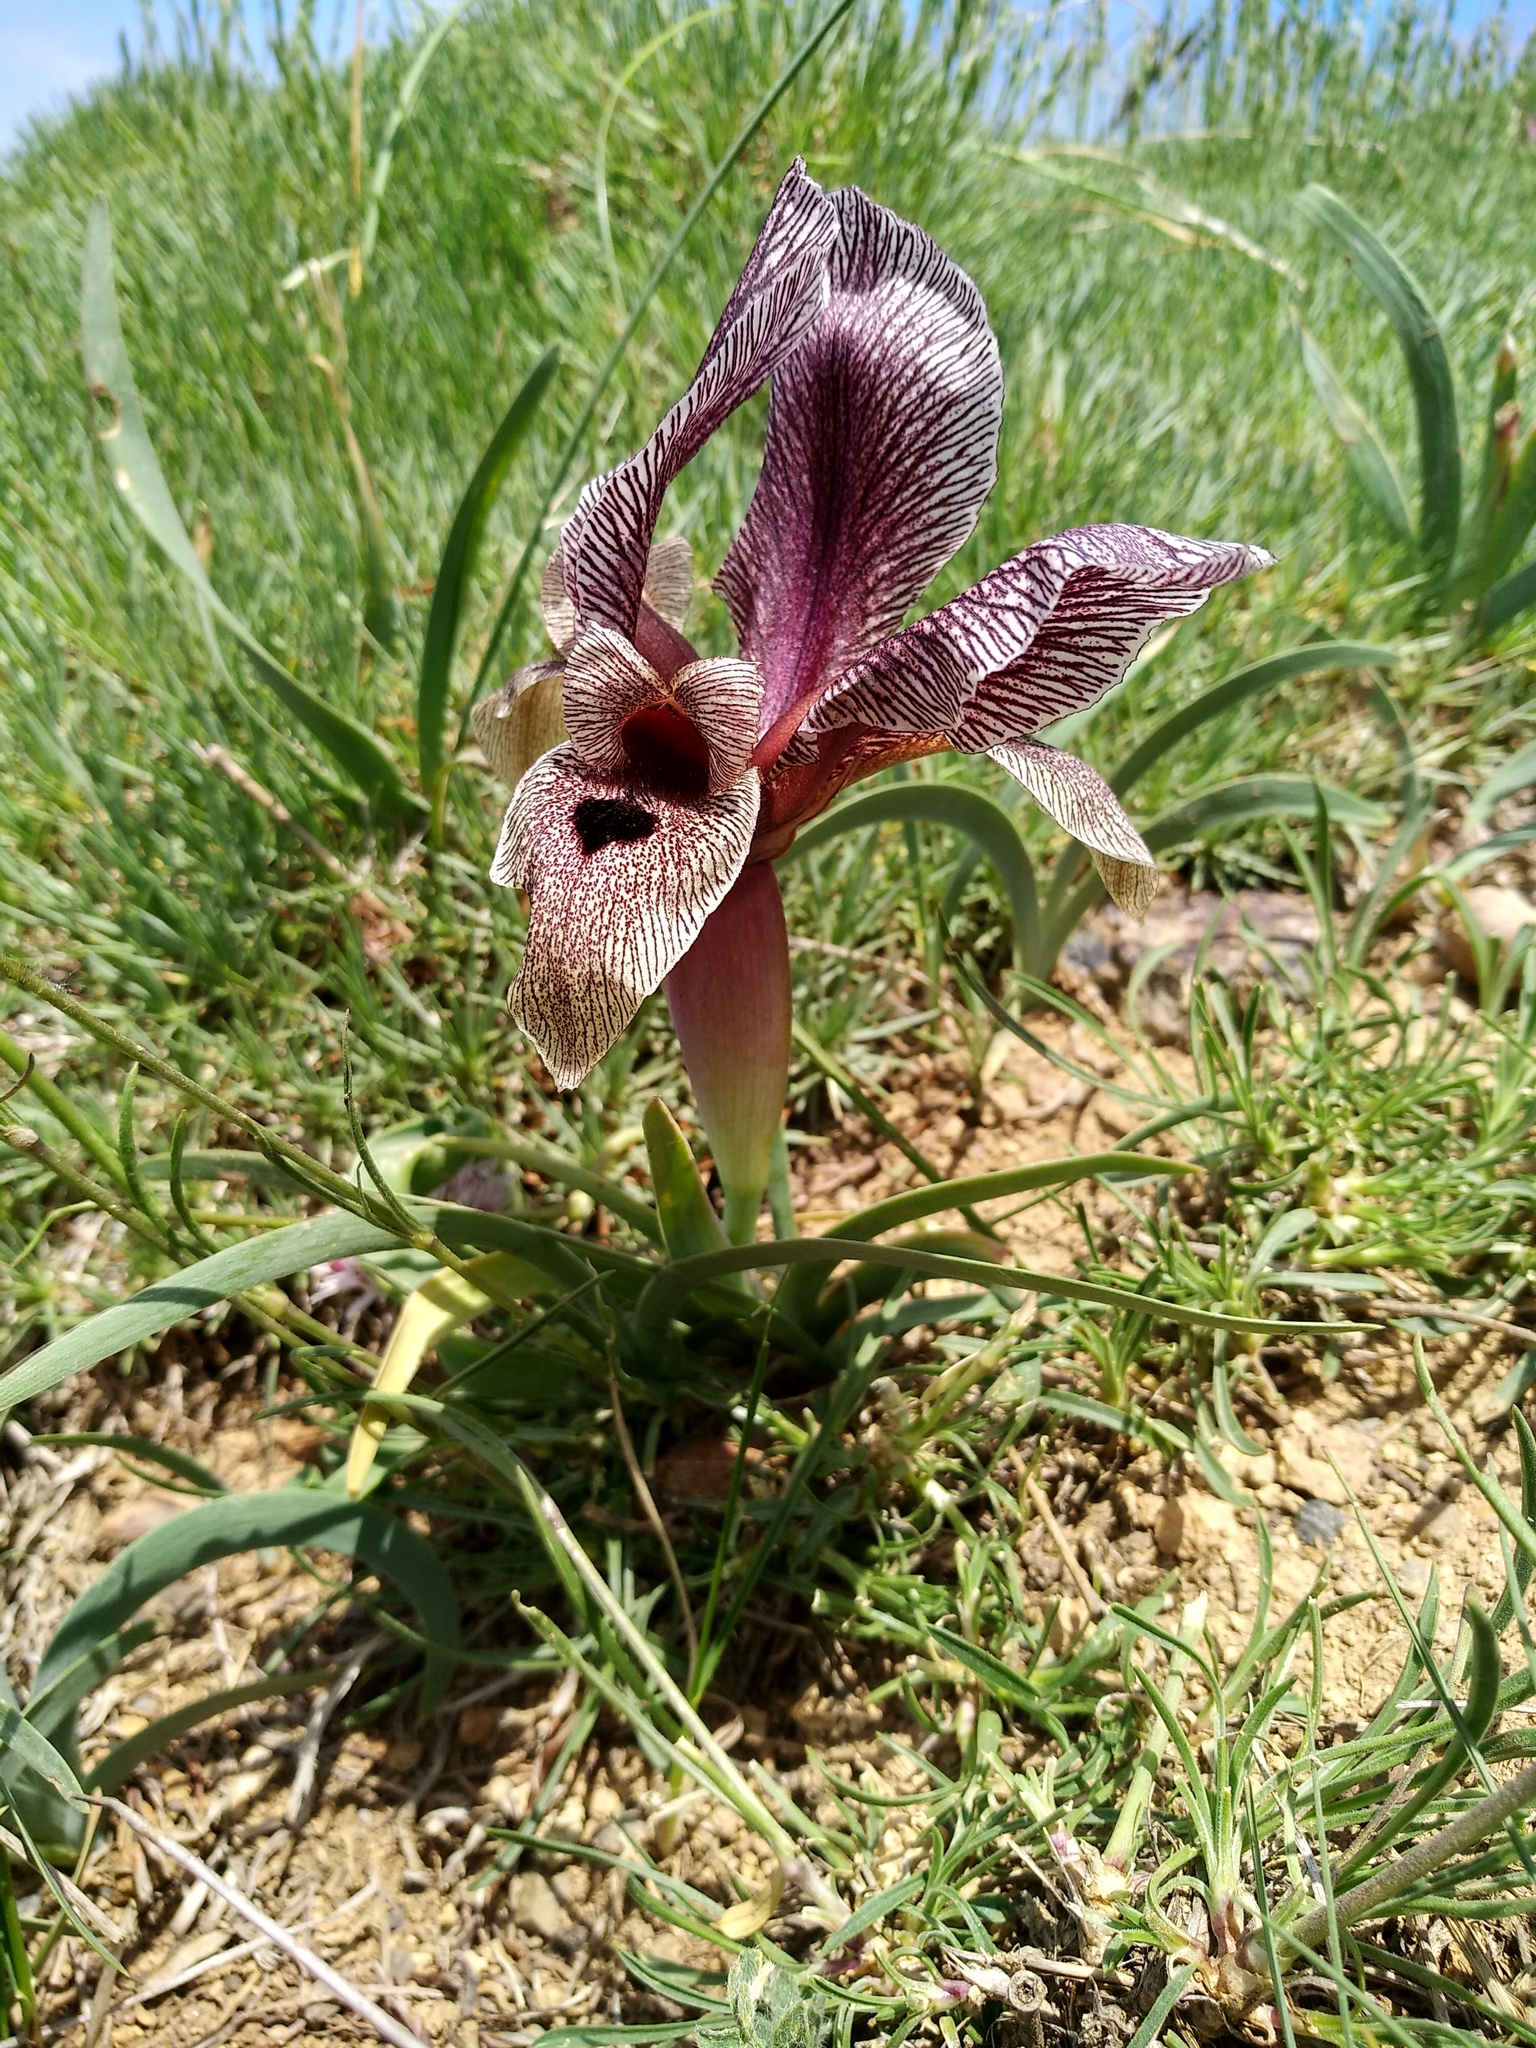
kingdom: Plantae
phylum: Tracheophyta
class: Liliopsida
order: Asparagales
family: Iridaceae
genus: Iris
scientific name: Iris acutiloba
